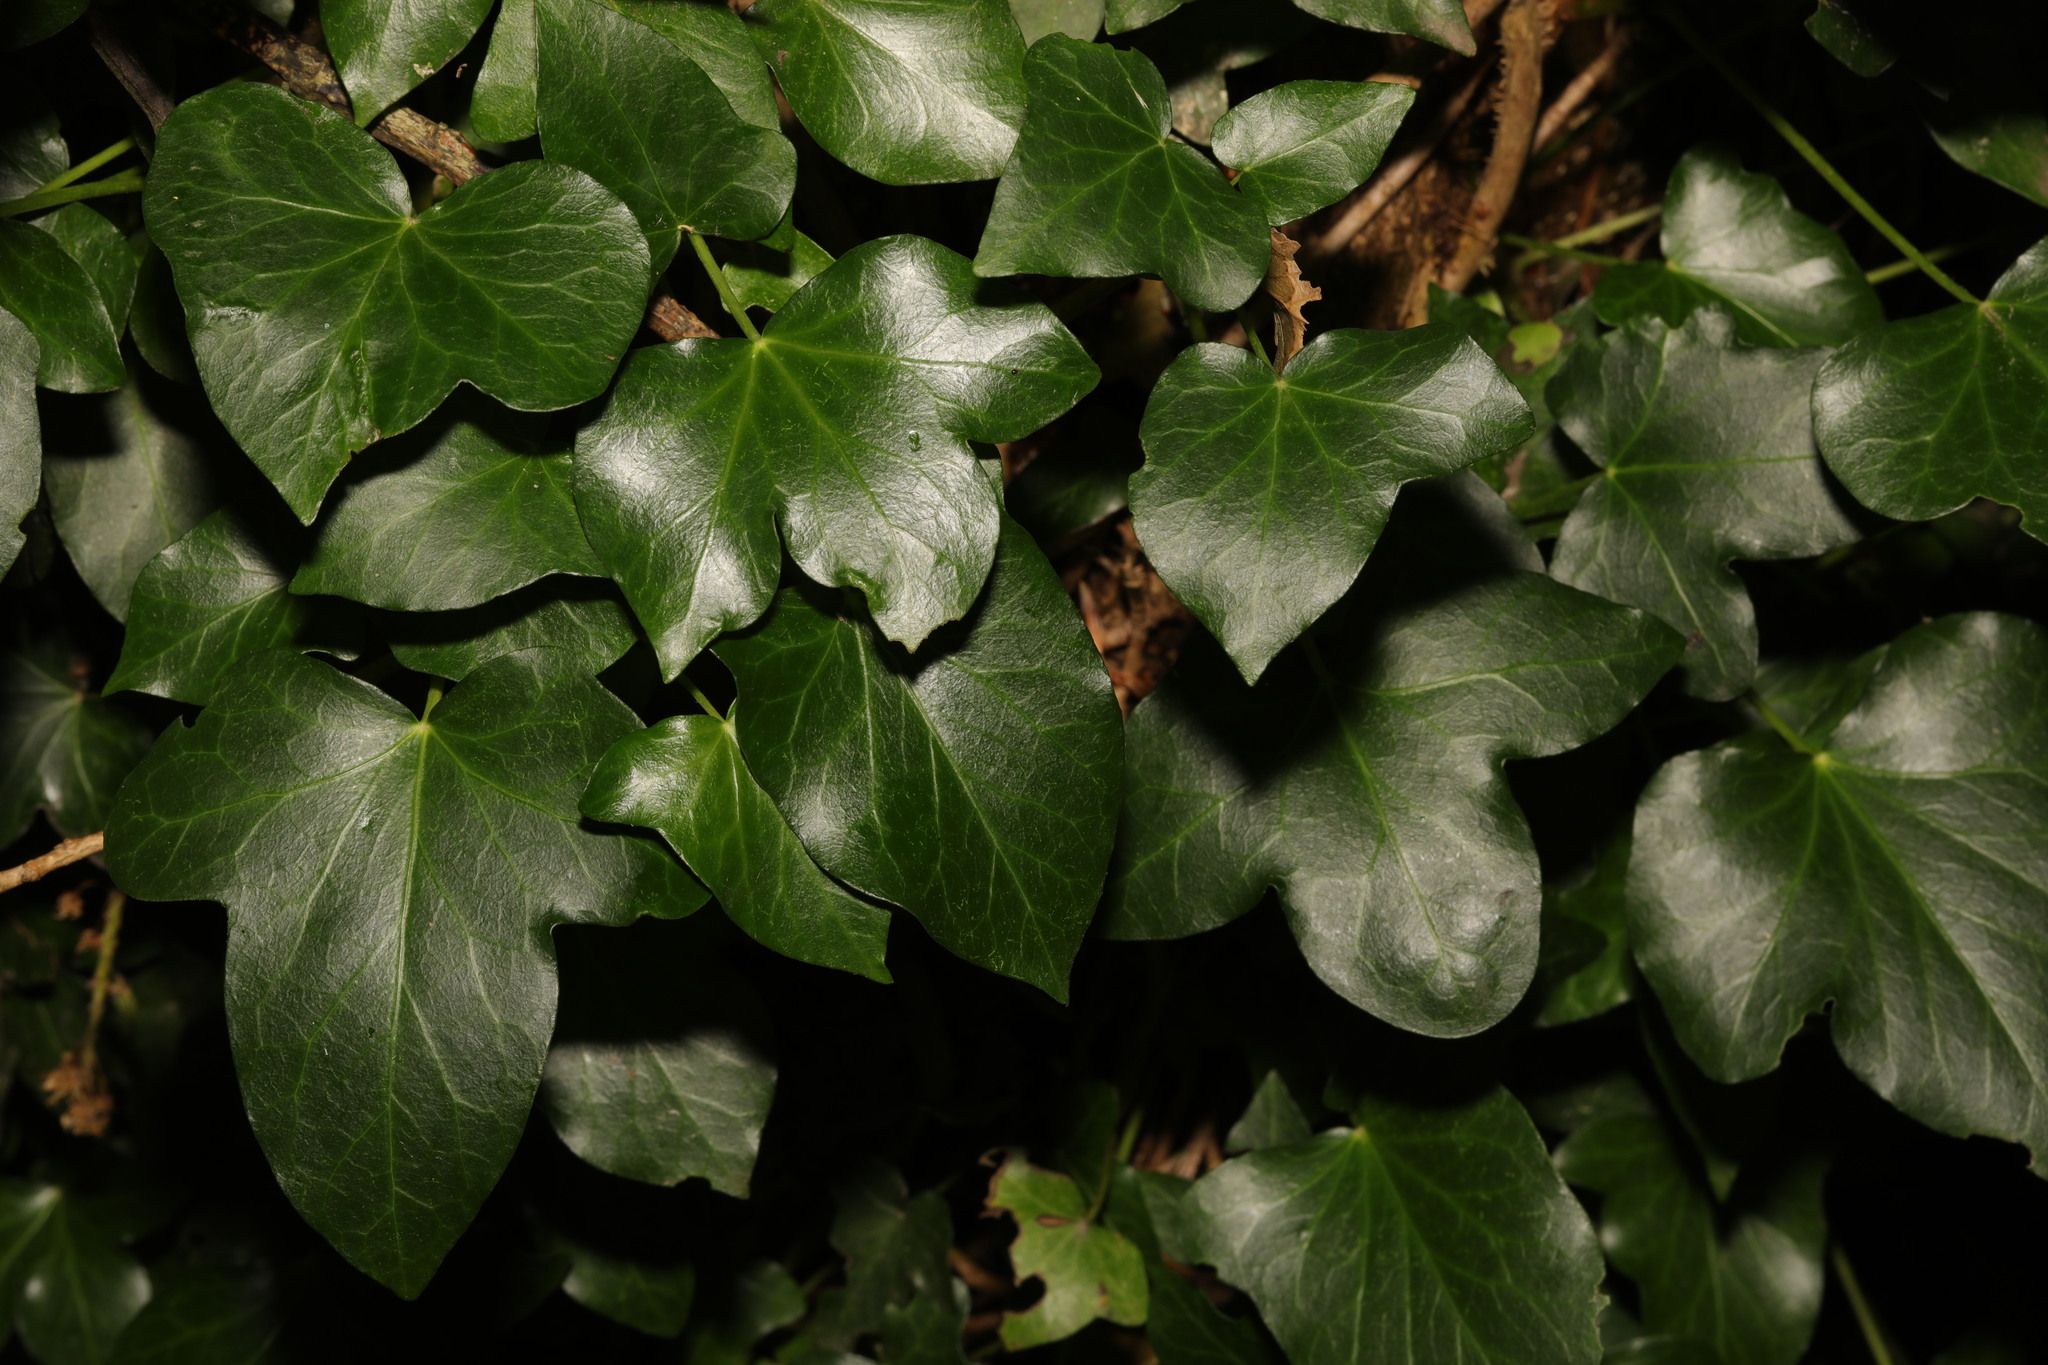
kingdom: Plantae
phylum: Tracheophyta
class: Magnoliopsida
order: Apiales
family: Araliaceae
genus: Hedera
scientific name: Hedera helix
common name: Ivy
